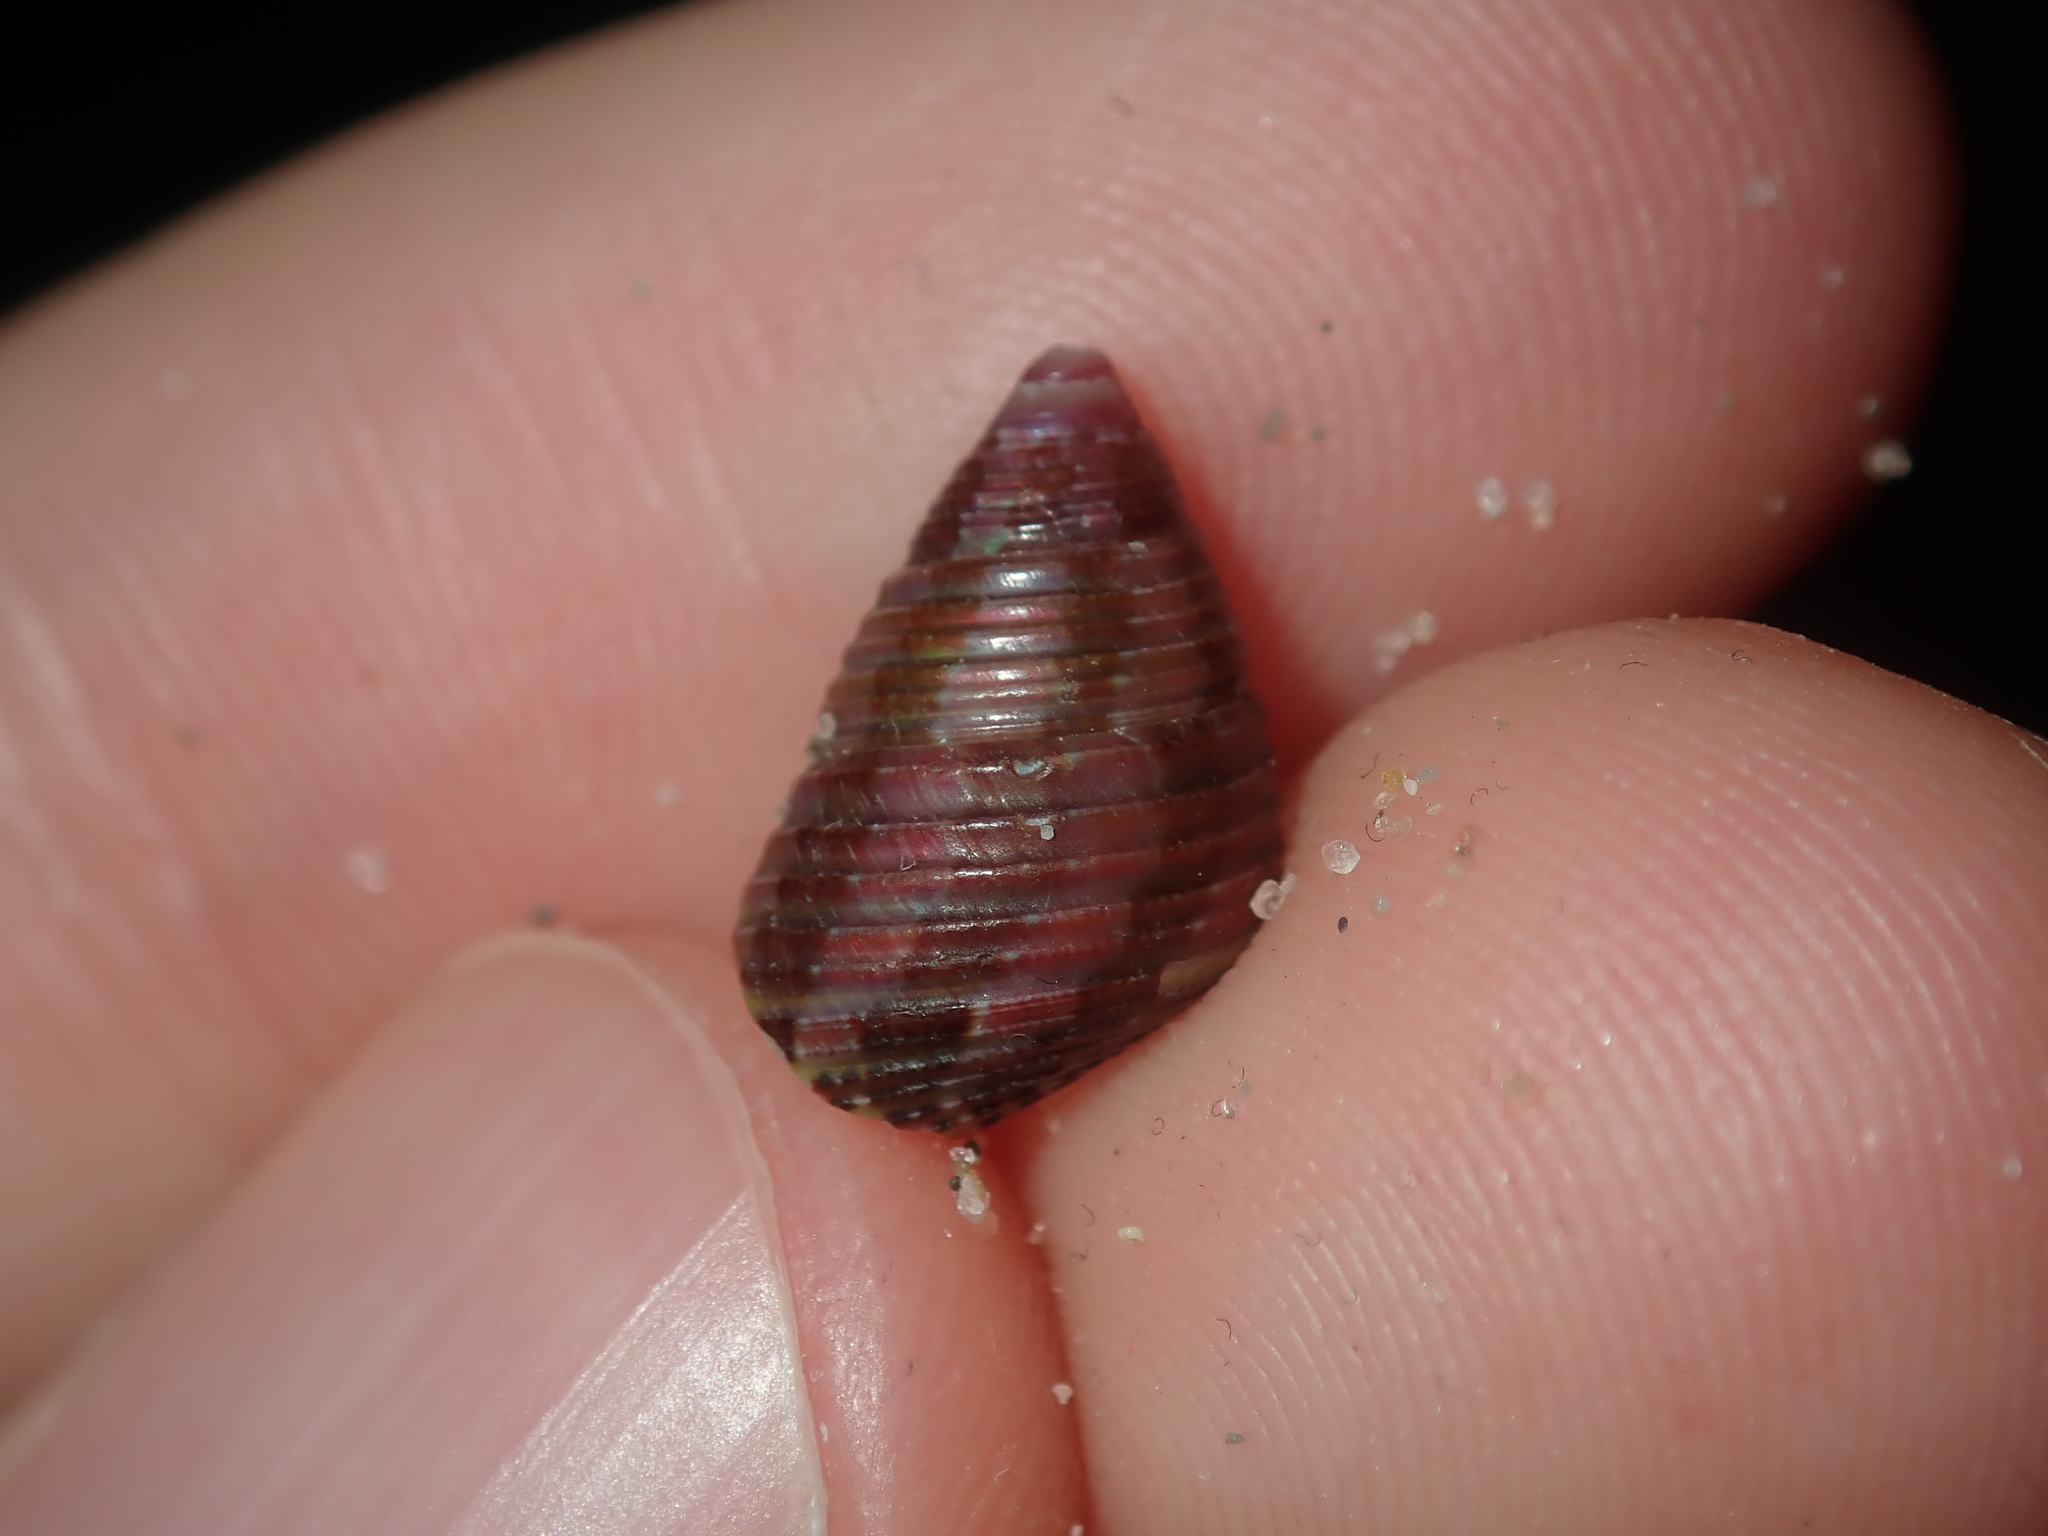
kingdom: Animalia
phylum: Mollusca
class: Gastropoda
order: Trochida
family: Trochidae
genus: Prothalotia
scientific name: Prothalotia pulcherrima
